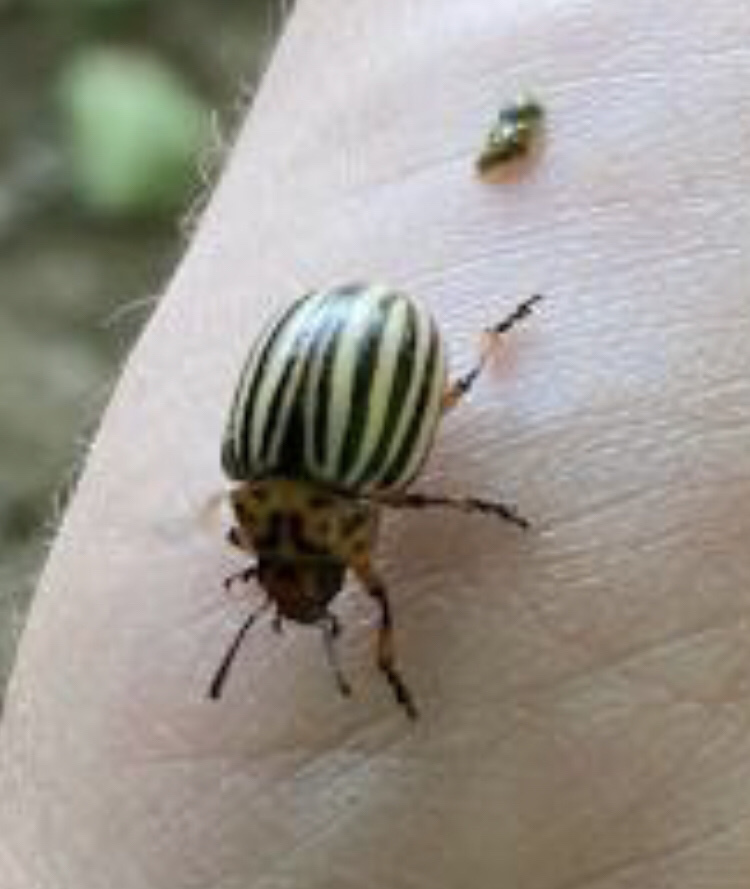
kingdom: Animalia
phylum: Arthropoda
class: Insecta
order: Coleoptera
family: Chrysomelidae
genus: Leptinotarsa
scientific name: Leptinotarsa decemlineata
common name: Colorado potato beetle
